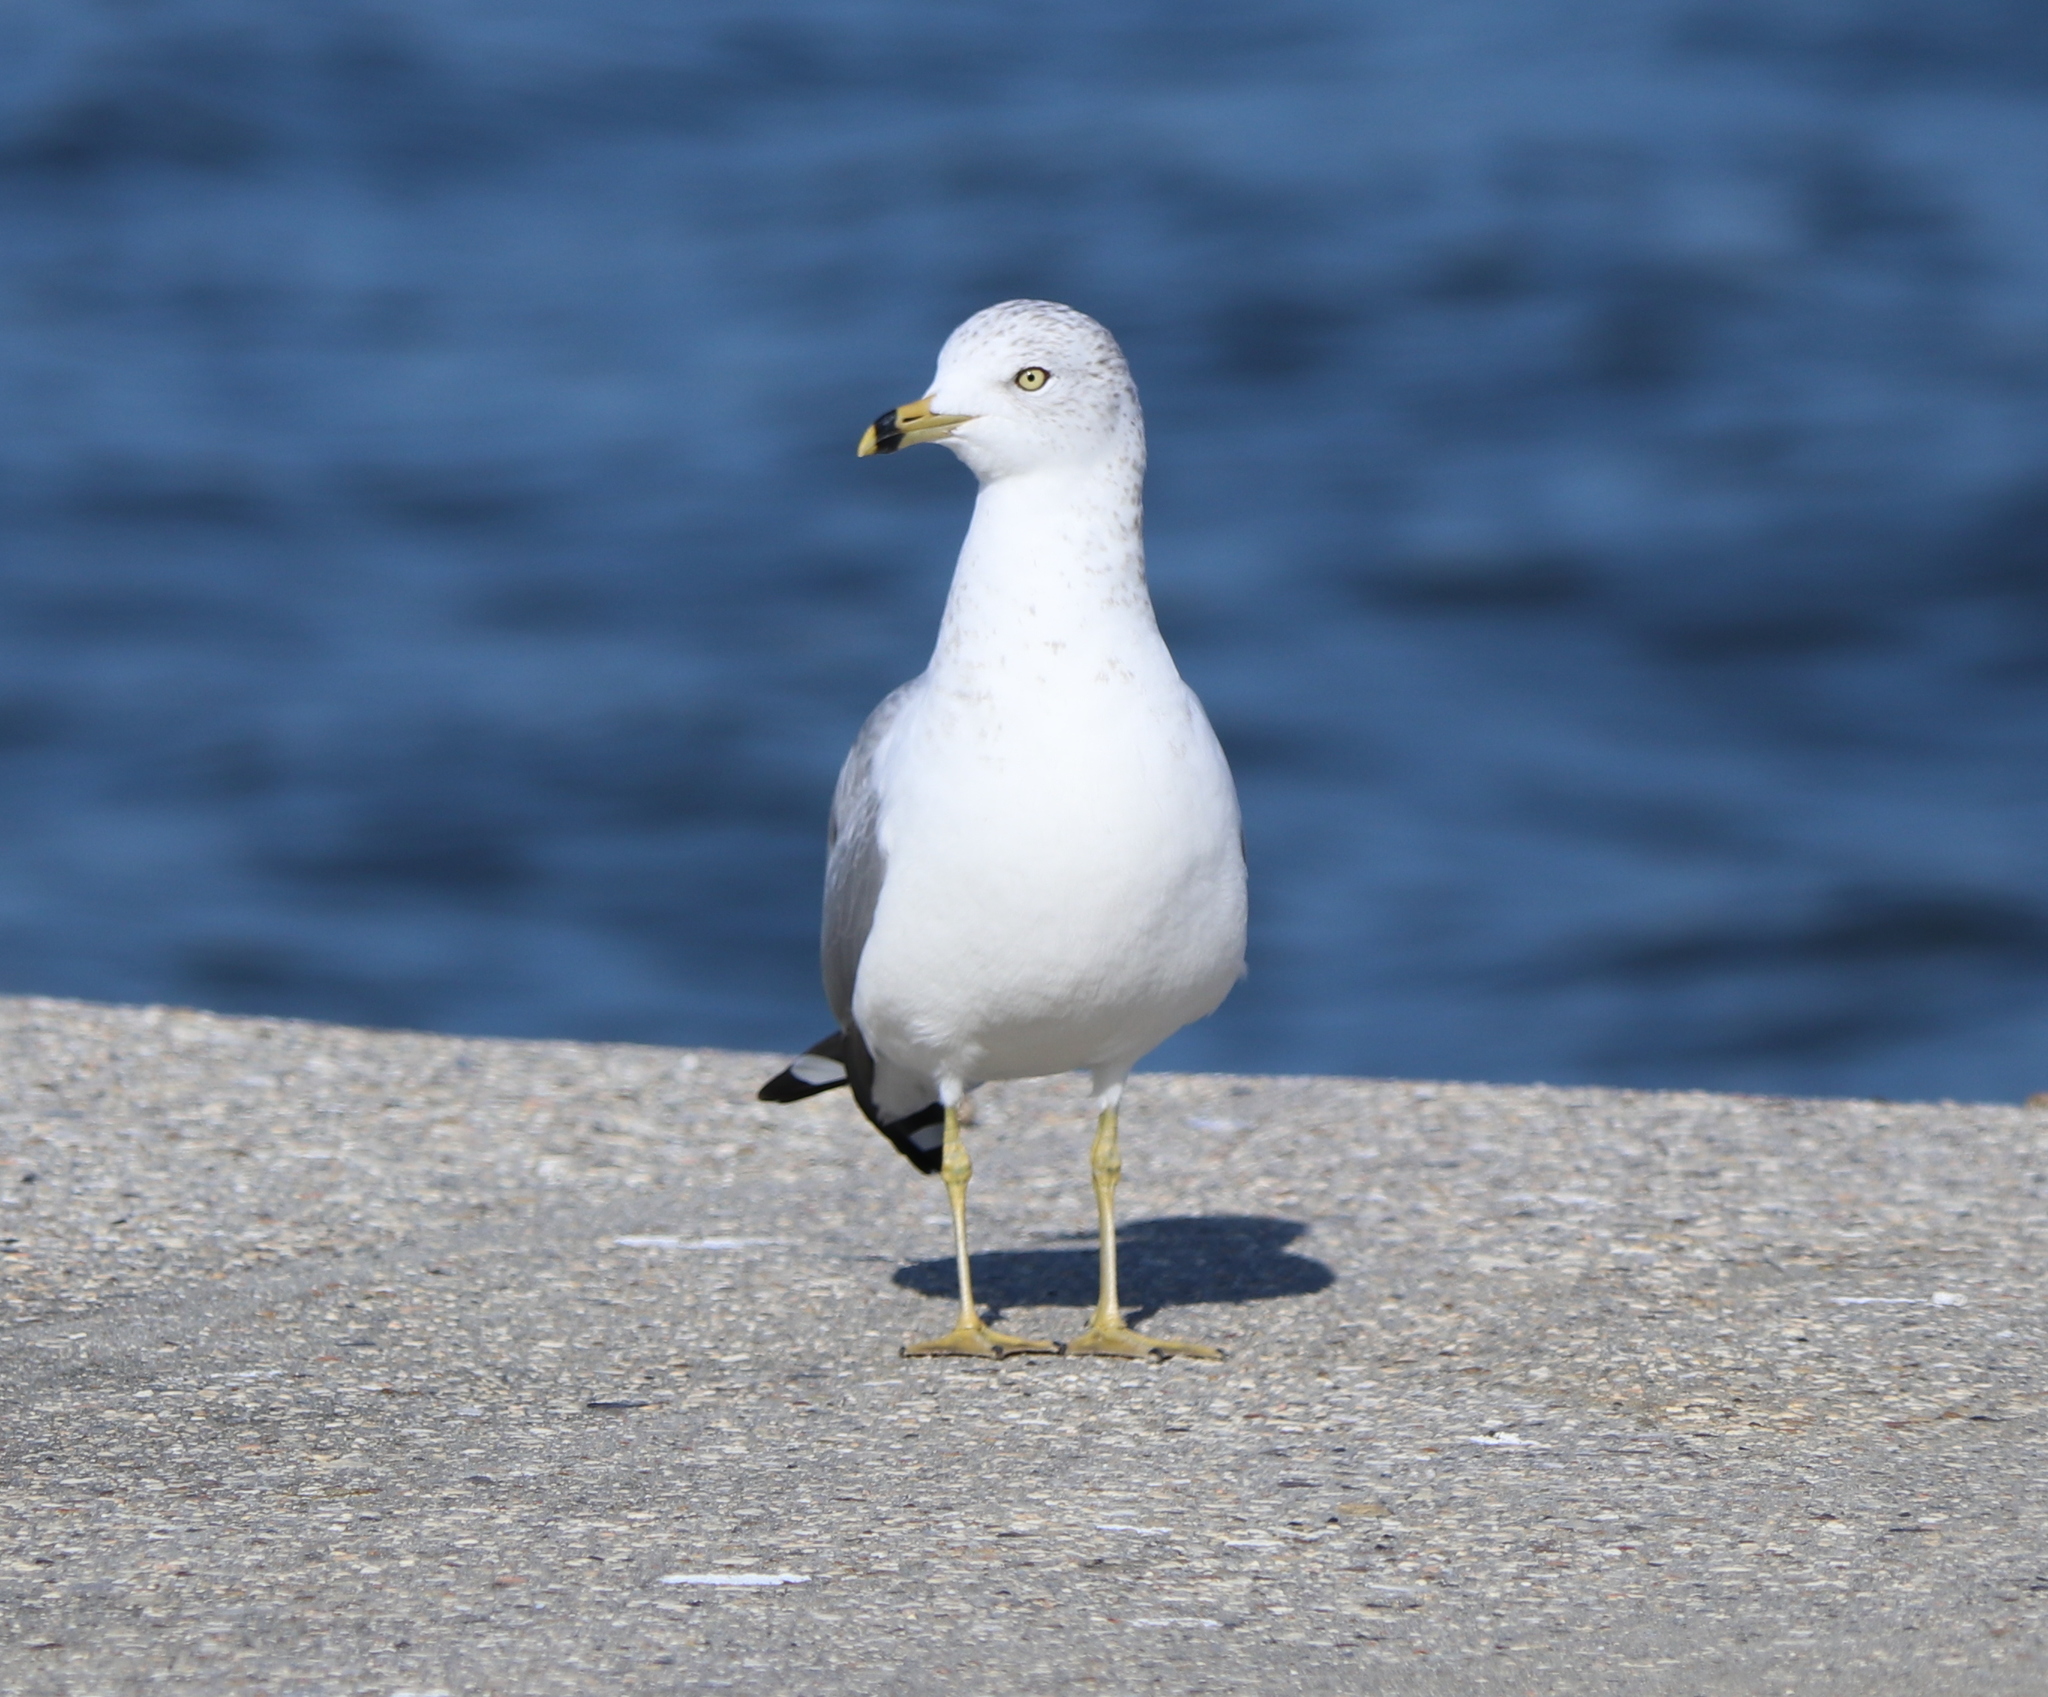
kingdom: Animalia
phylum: Chordata
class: Aves
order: Charadriiformes
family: Laridae
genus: Larus
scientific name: Larus delawarensis
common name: Ring-billed gull
